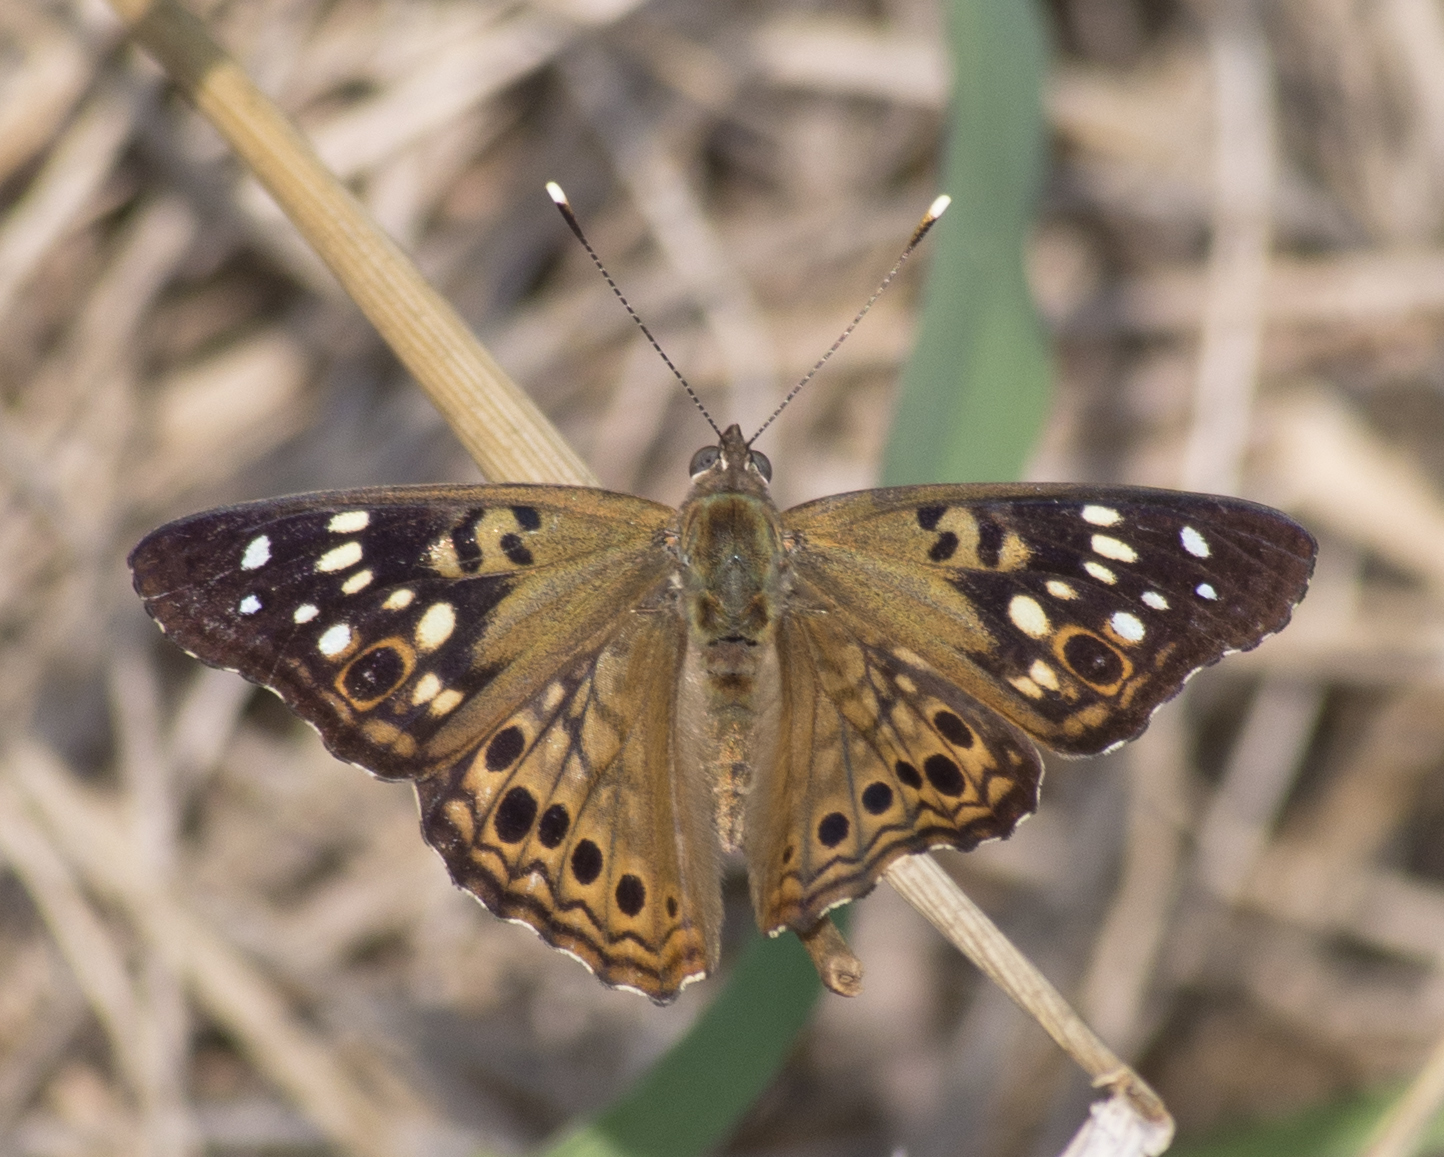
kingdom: Animalia
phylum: Arthropoda
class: Insecta
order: Lepidoptera
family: Nymphalidae
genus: Asterocampa
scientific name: Asterocampa celtis
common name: Hackberry emperor
